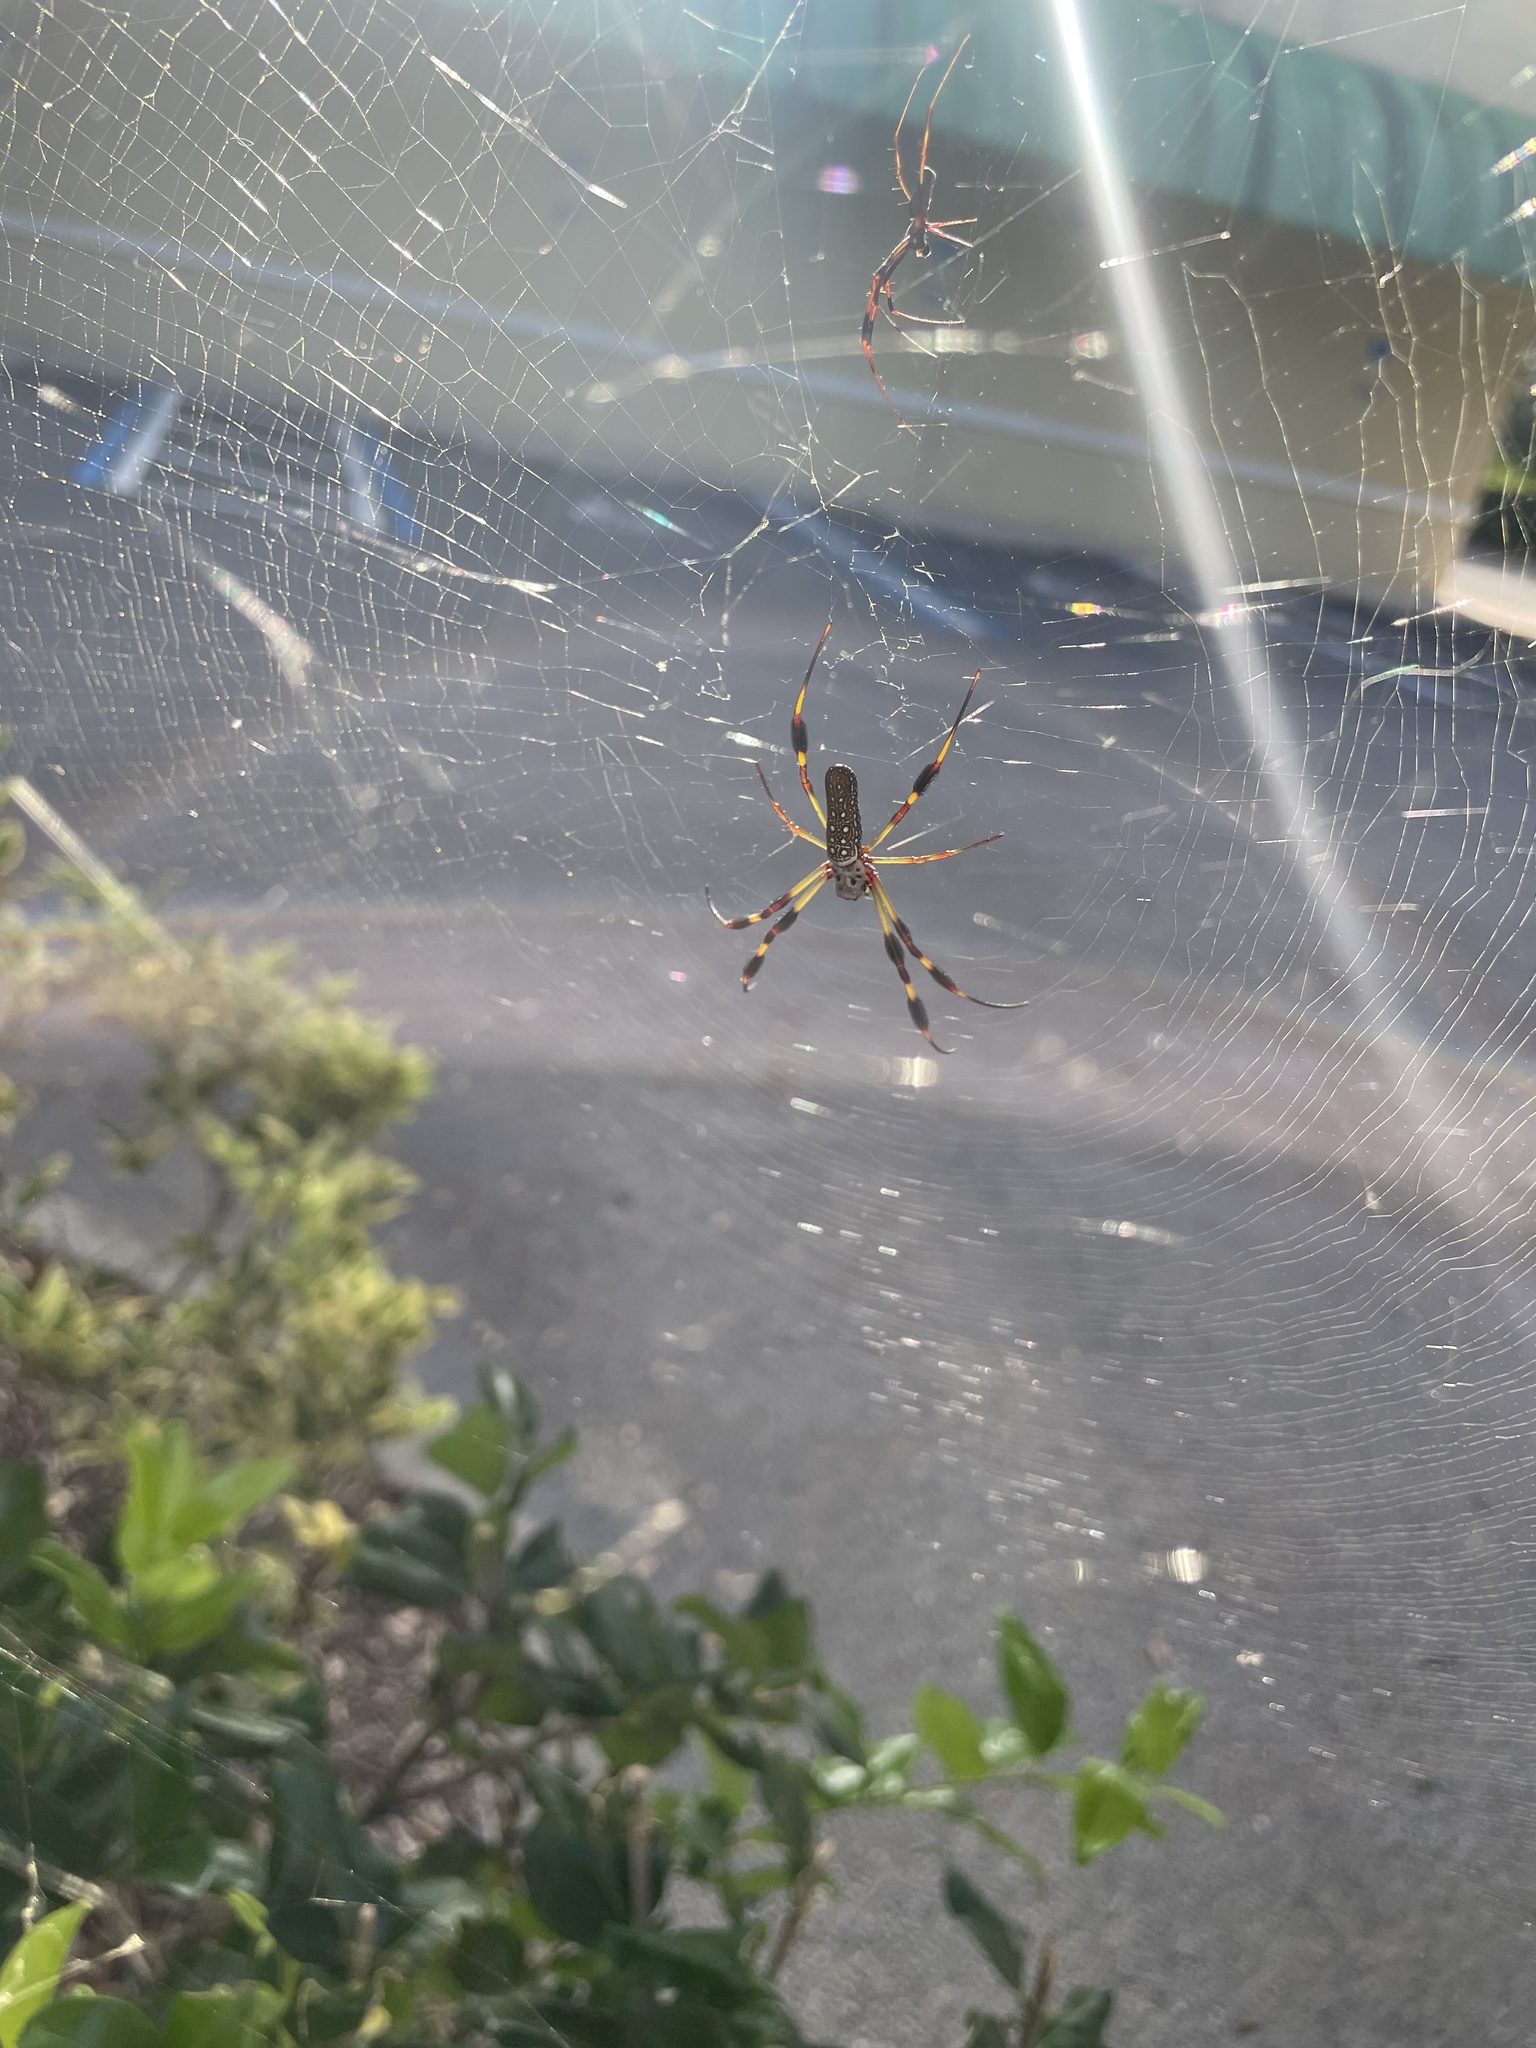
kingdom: Animalia
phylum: Arthropoda
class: Arachnida
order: Araneae
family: Araneidae
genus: Trichonephila
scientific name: Trichonephila clavipes
